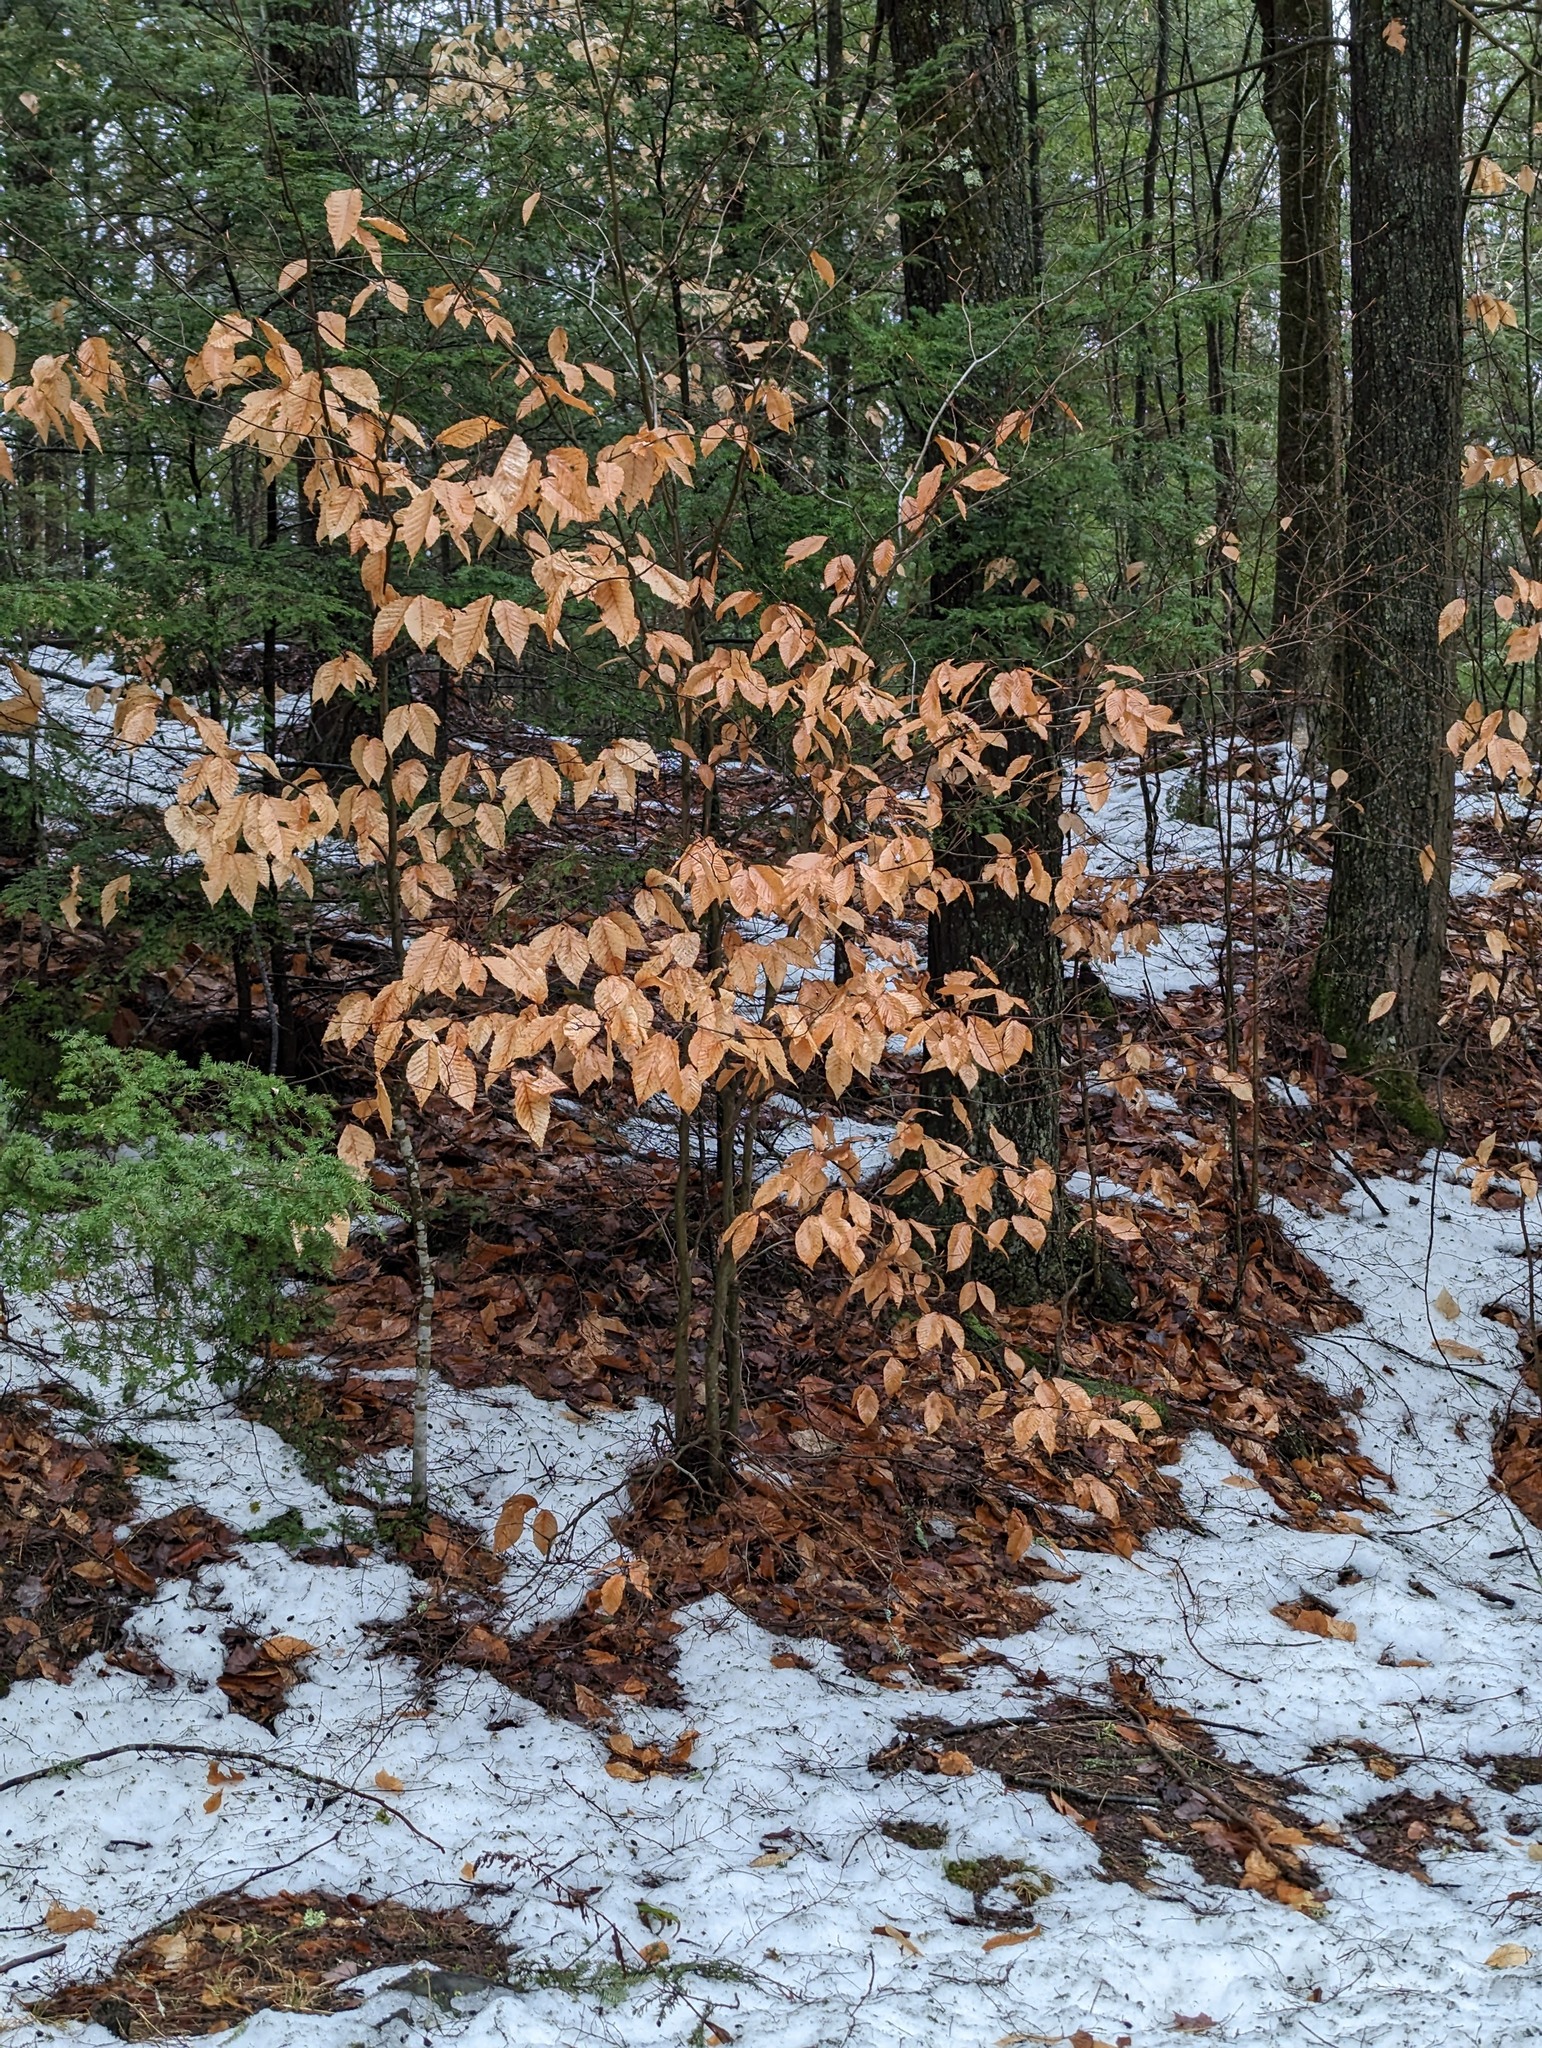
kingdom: Plantae
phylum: Tracheophyta
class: Magnoliopsida
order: Fagales
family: Fagaceae
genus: Fagus
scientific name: Fagus grandifolia
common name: American beech
